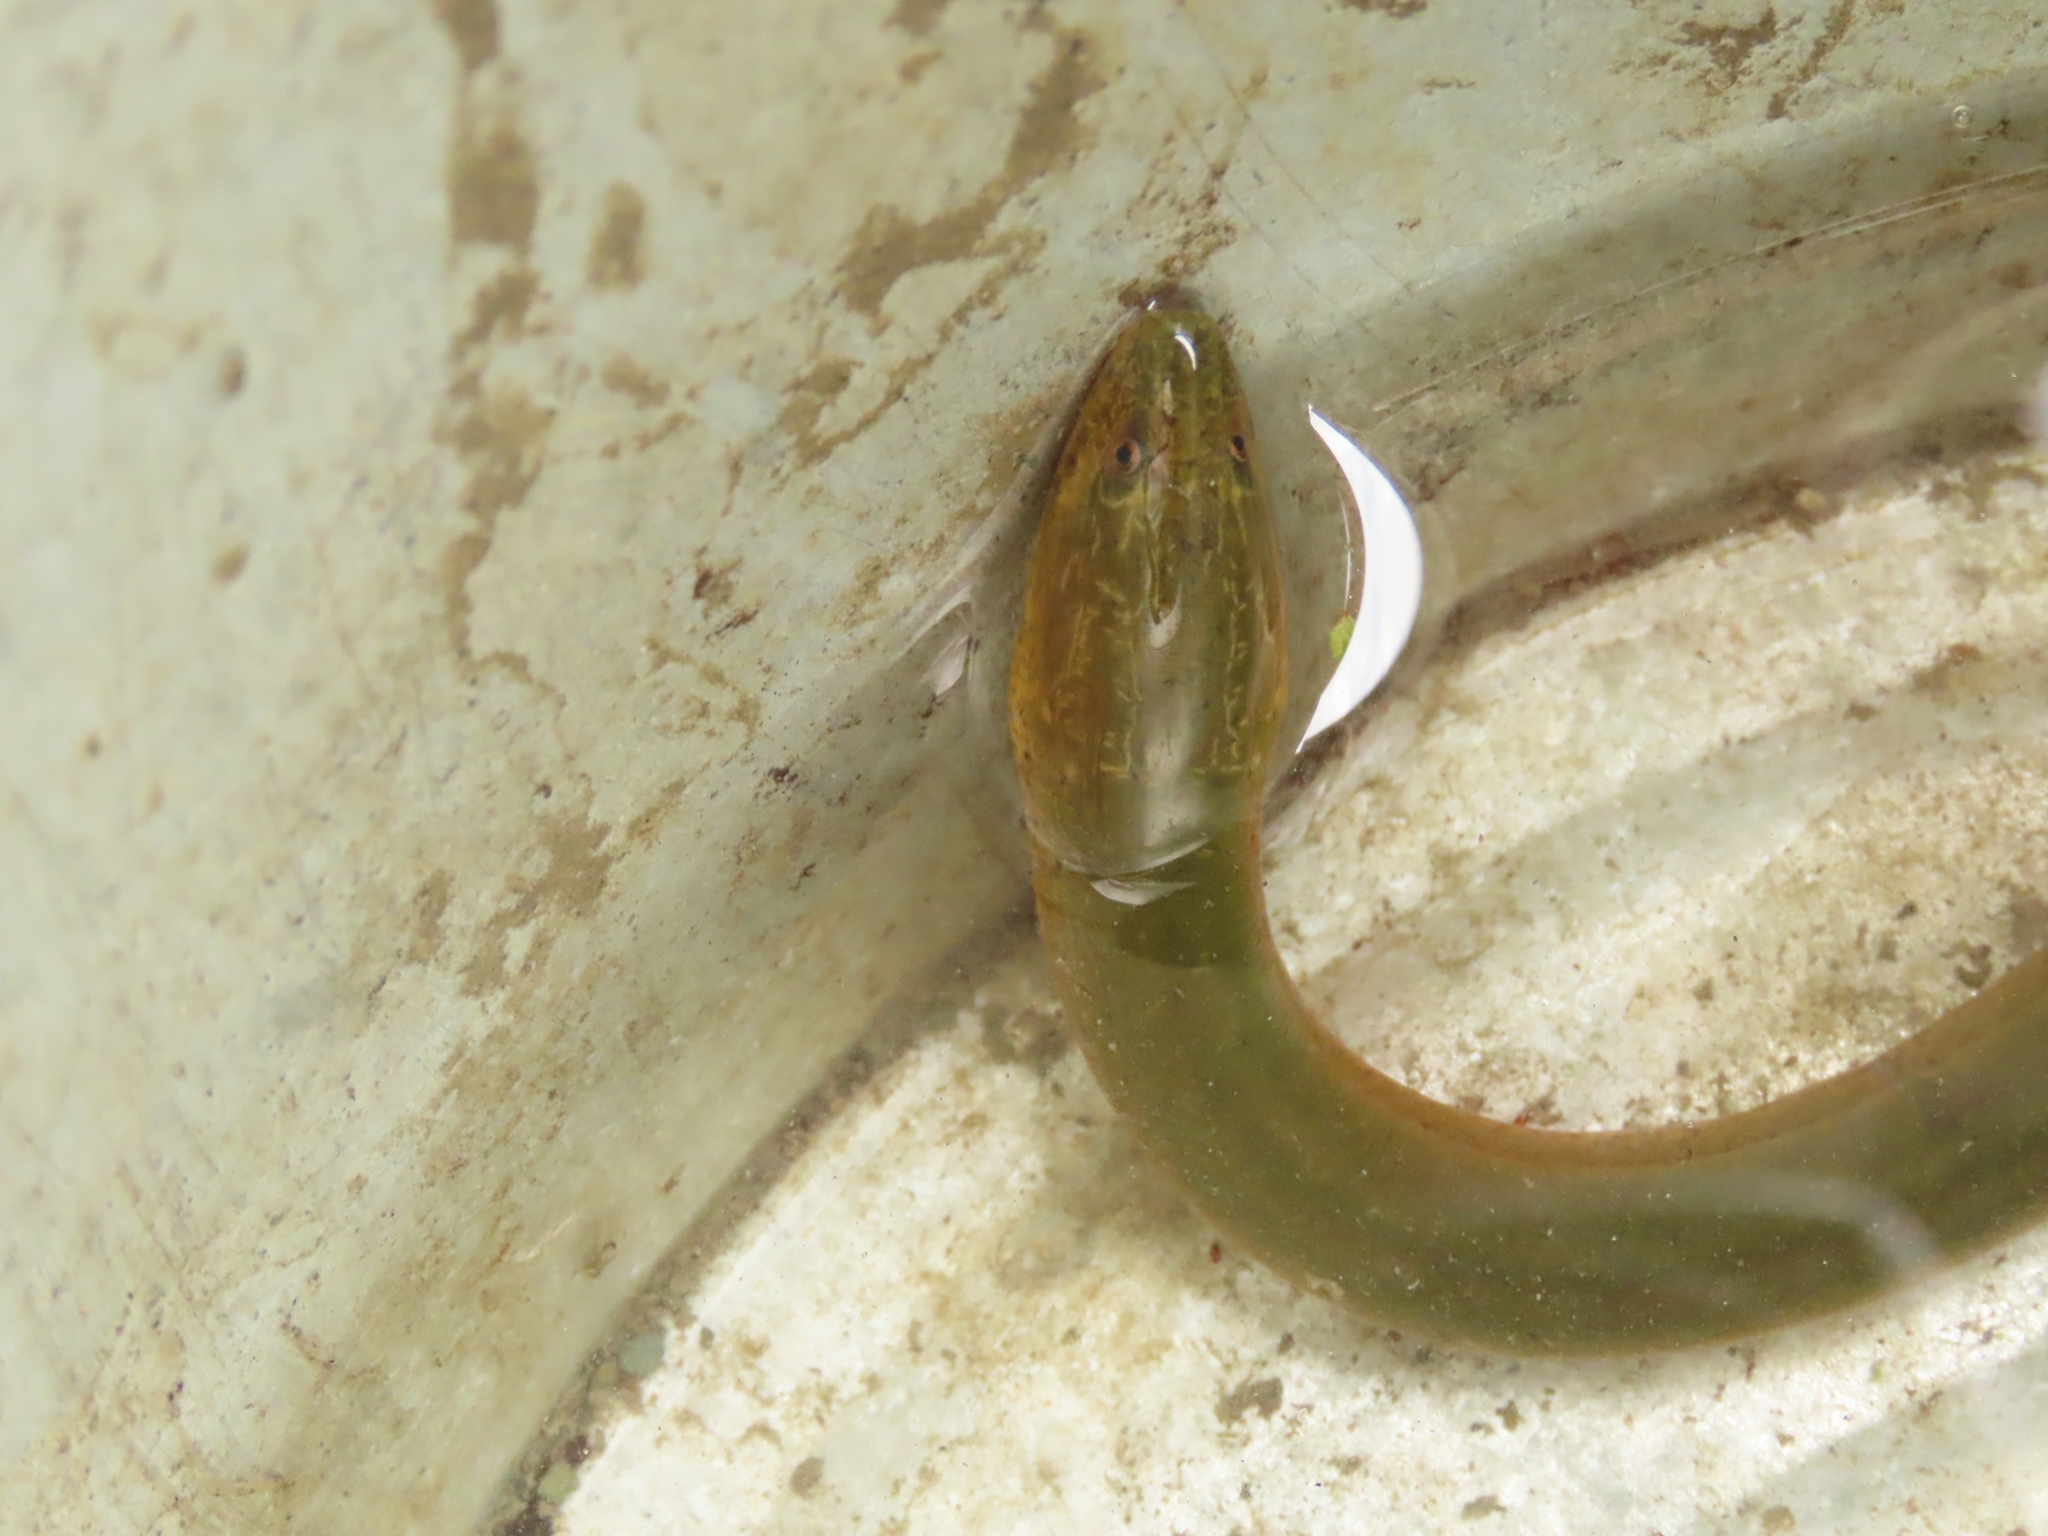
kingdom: Animalia
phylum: Chordata
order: Synbranchiformes
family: Synbranchidae
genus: Monopterus
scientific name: Monopterus albus
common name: Asian swamp eel
